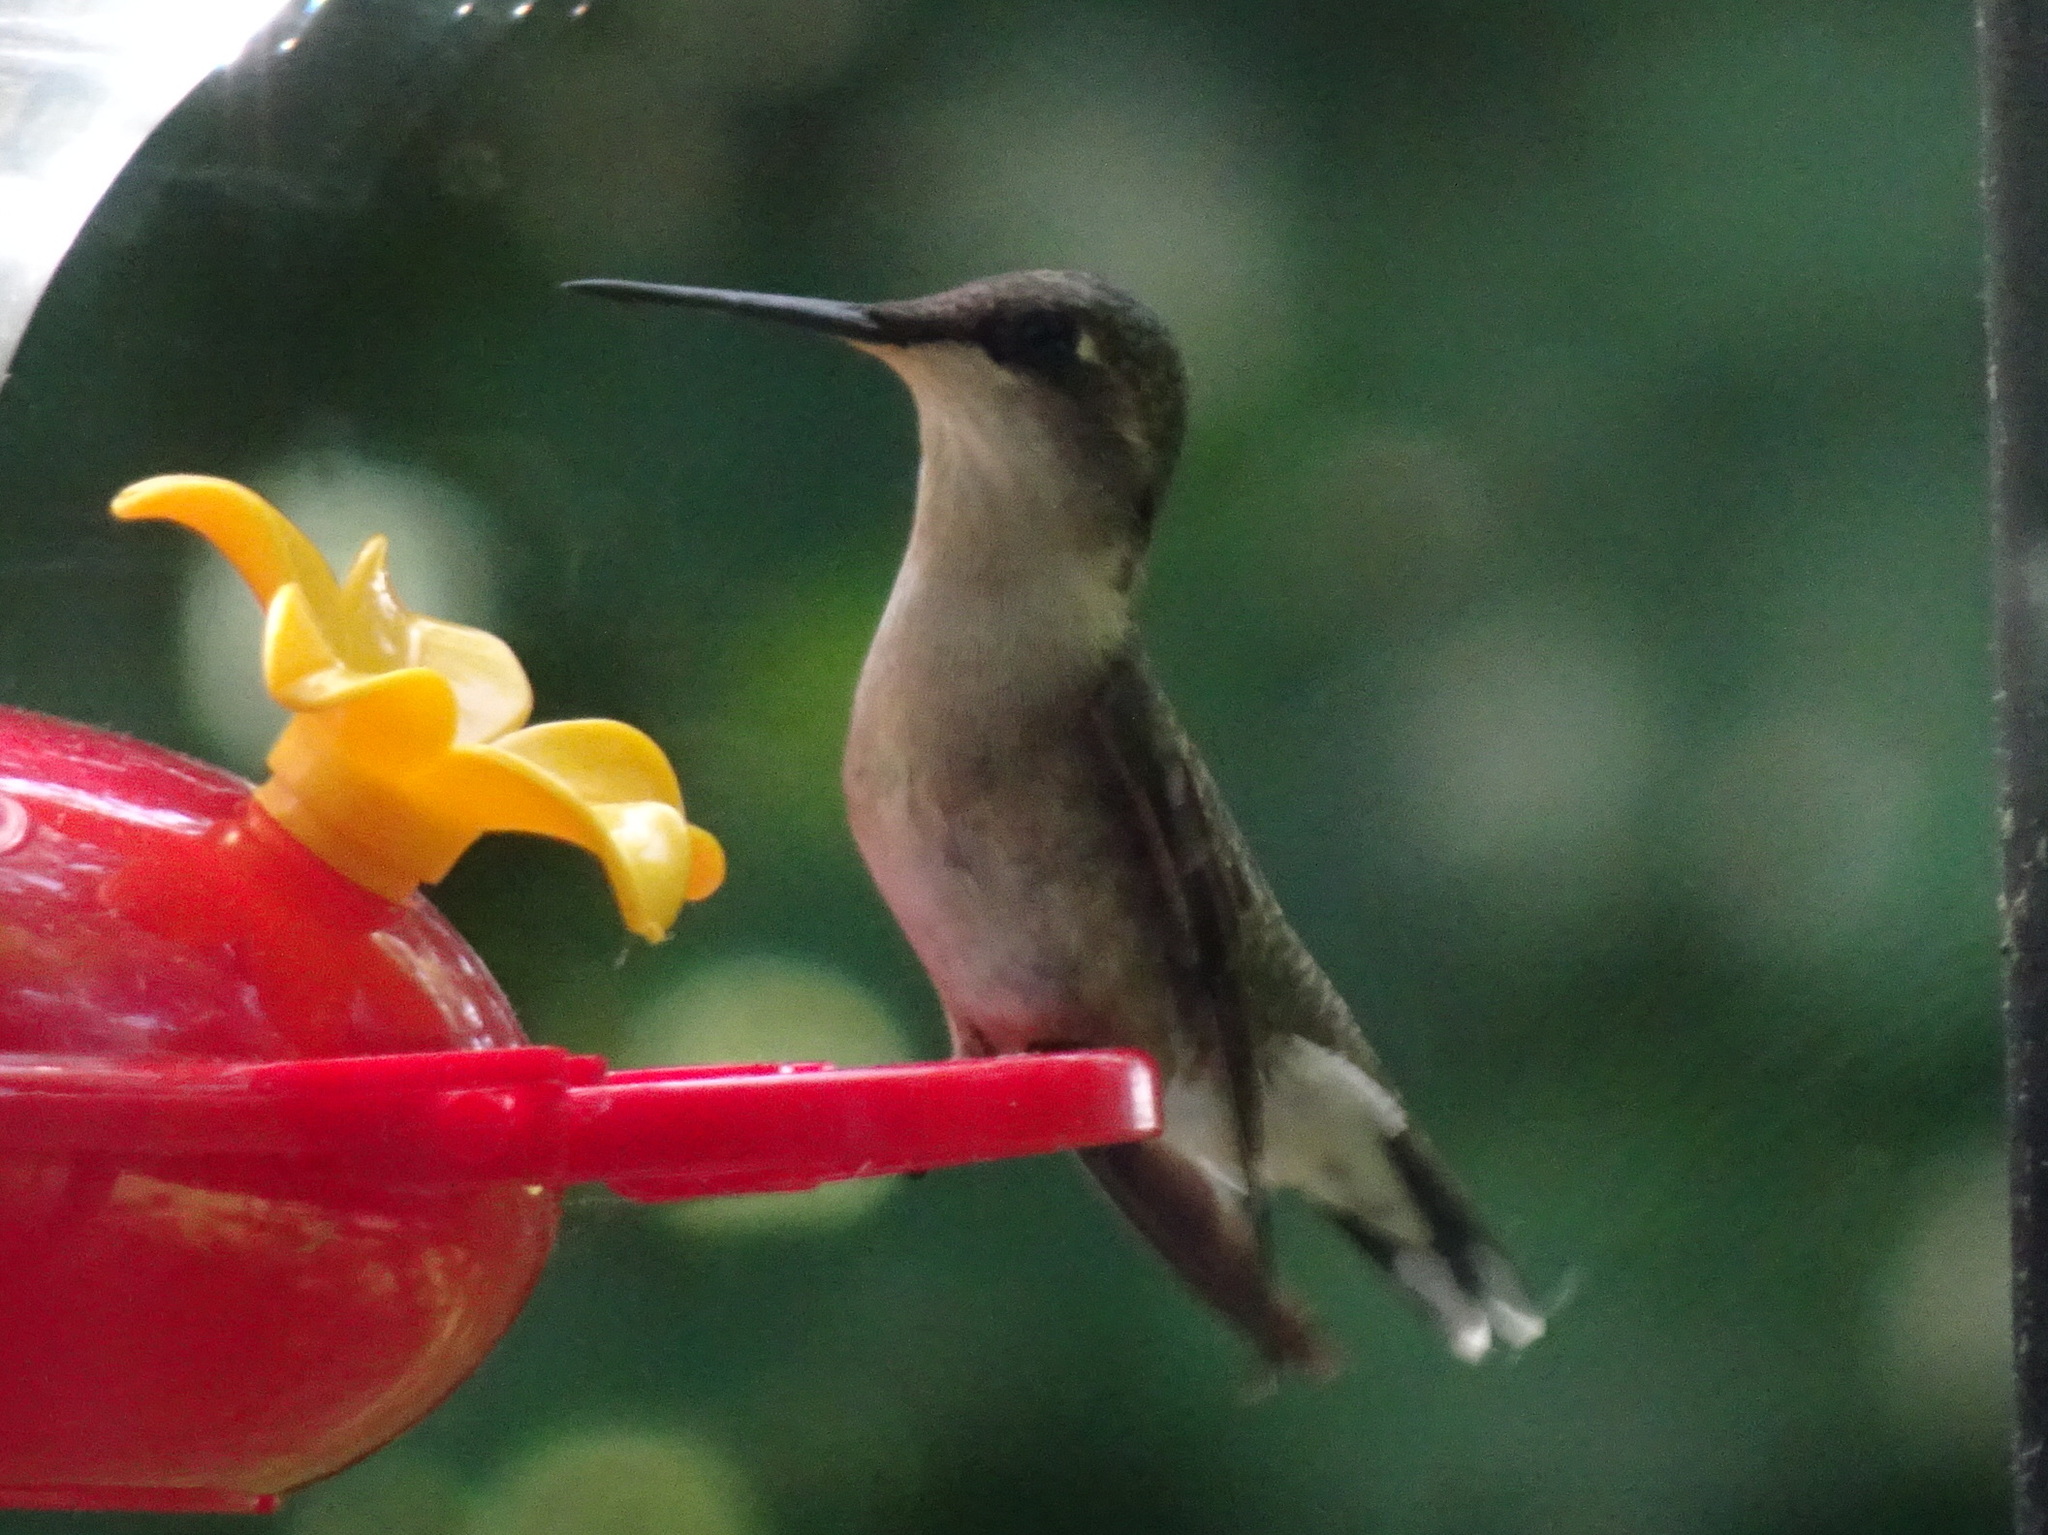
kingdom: Animalia
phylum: Chordata
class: Aves
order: Apodiformes
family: Trochilidae
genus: Archilochus
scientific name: Archilochus colubris
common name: Ruby-throated hummingbird
